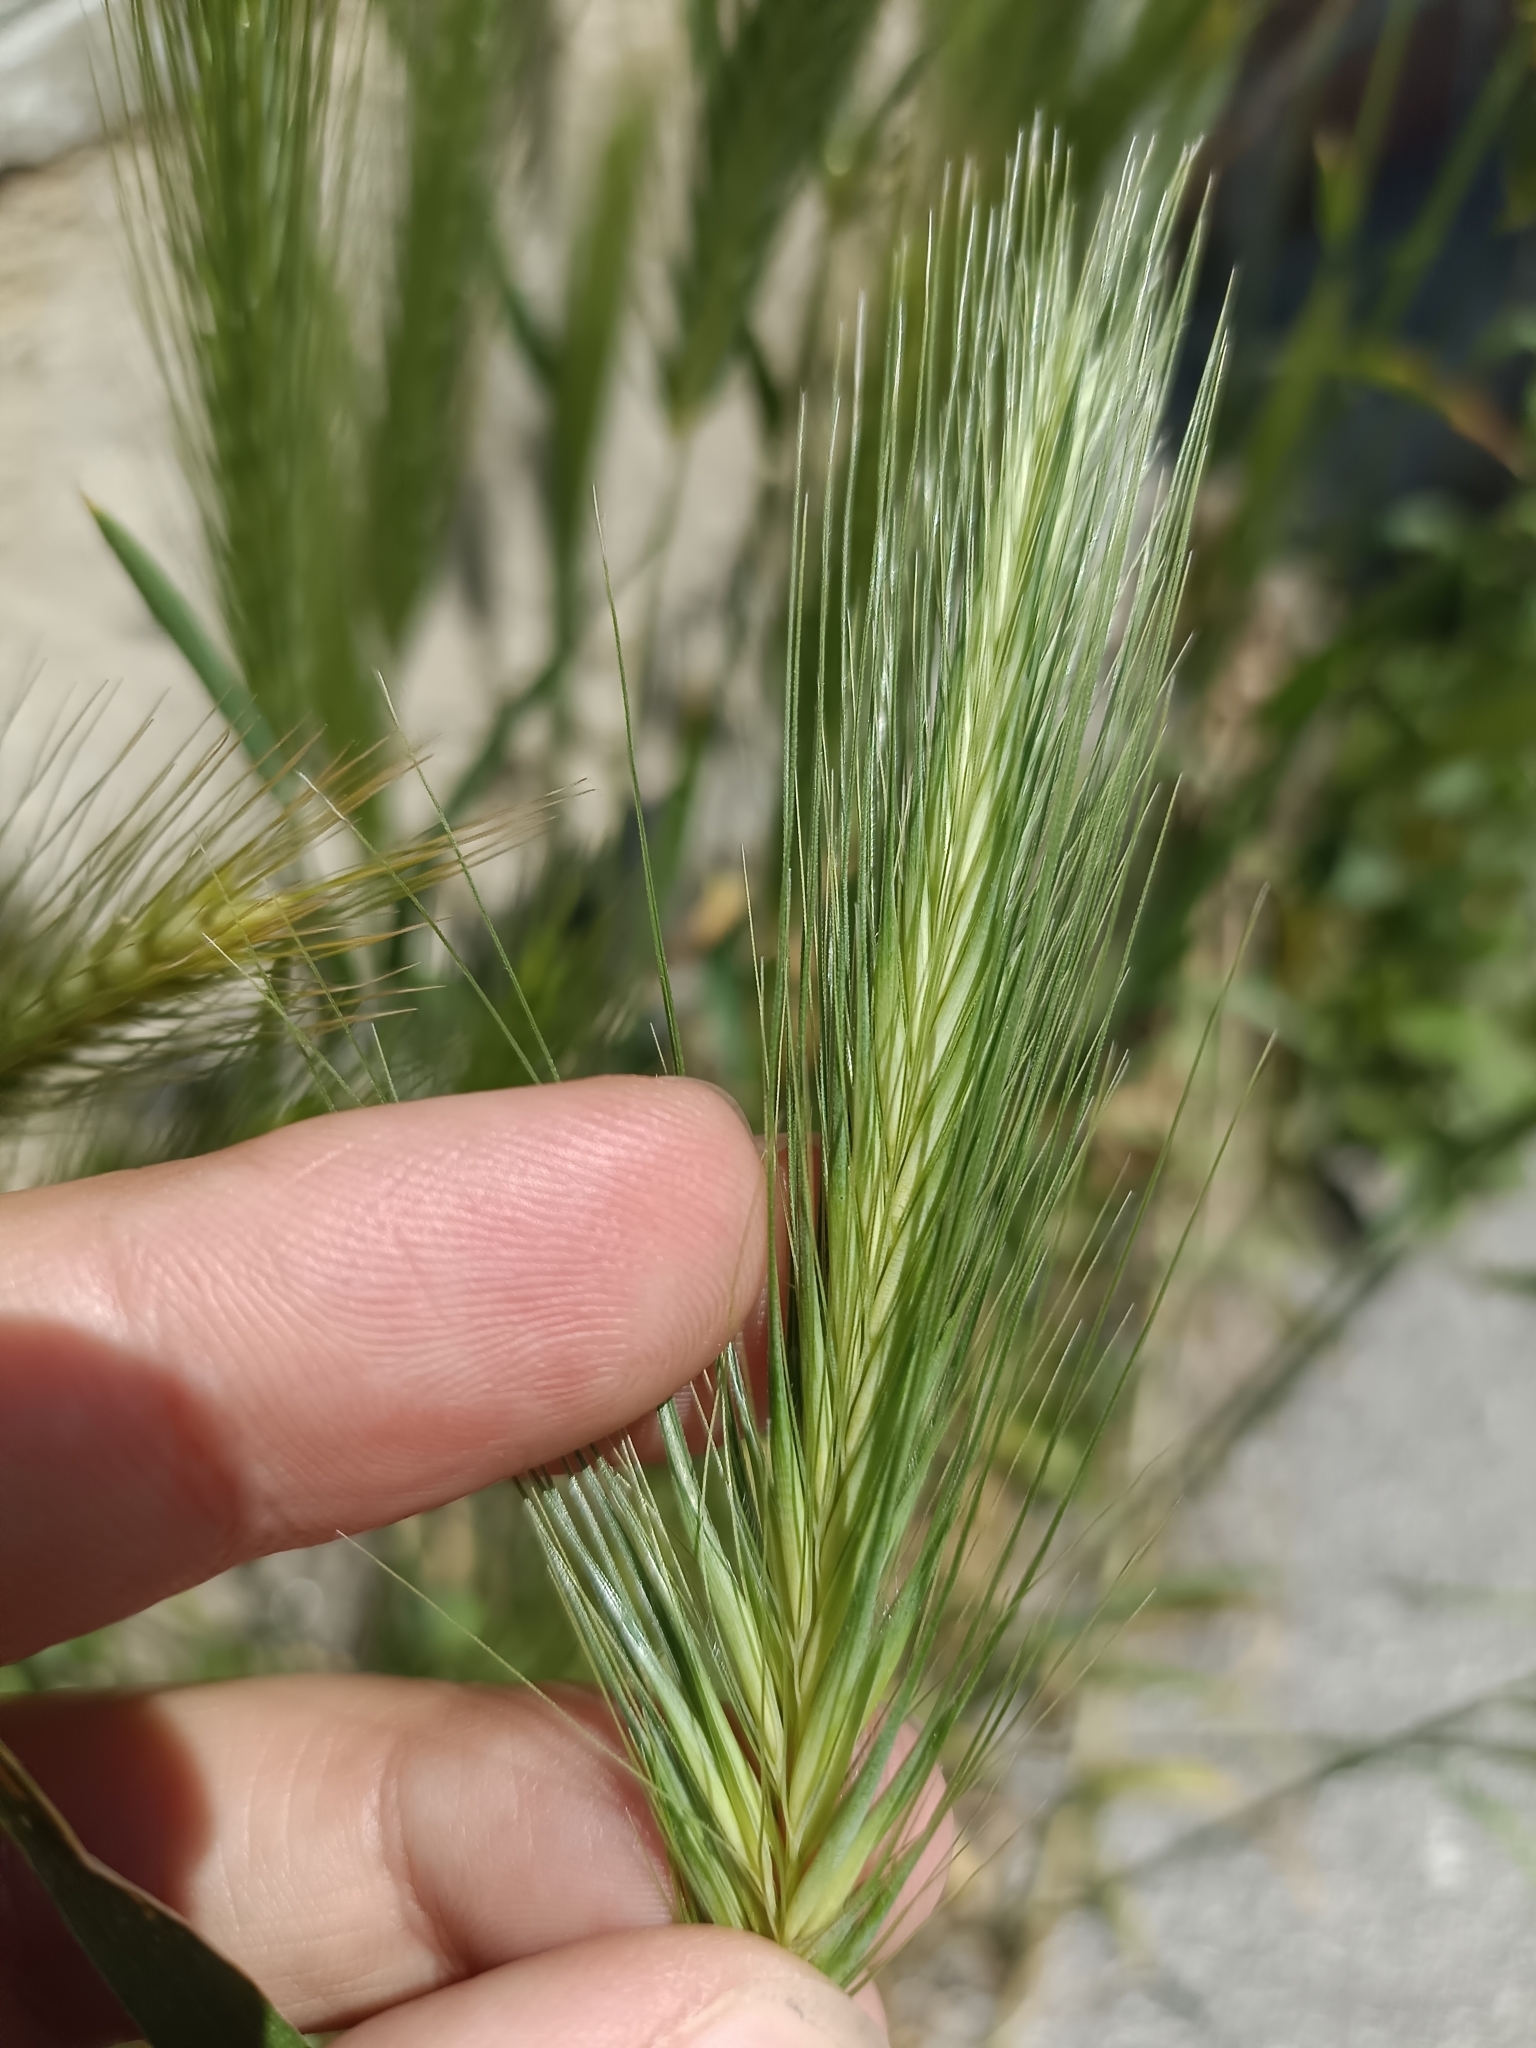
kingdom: Plantae
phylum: Tracheophyta
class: Liliopsida
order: Poales
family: Poaceae
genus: Hordeum
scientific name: Hordeum murinum
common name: Wall barley
